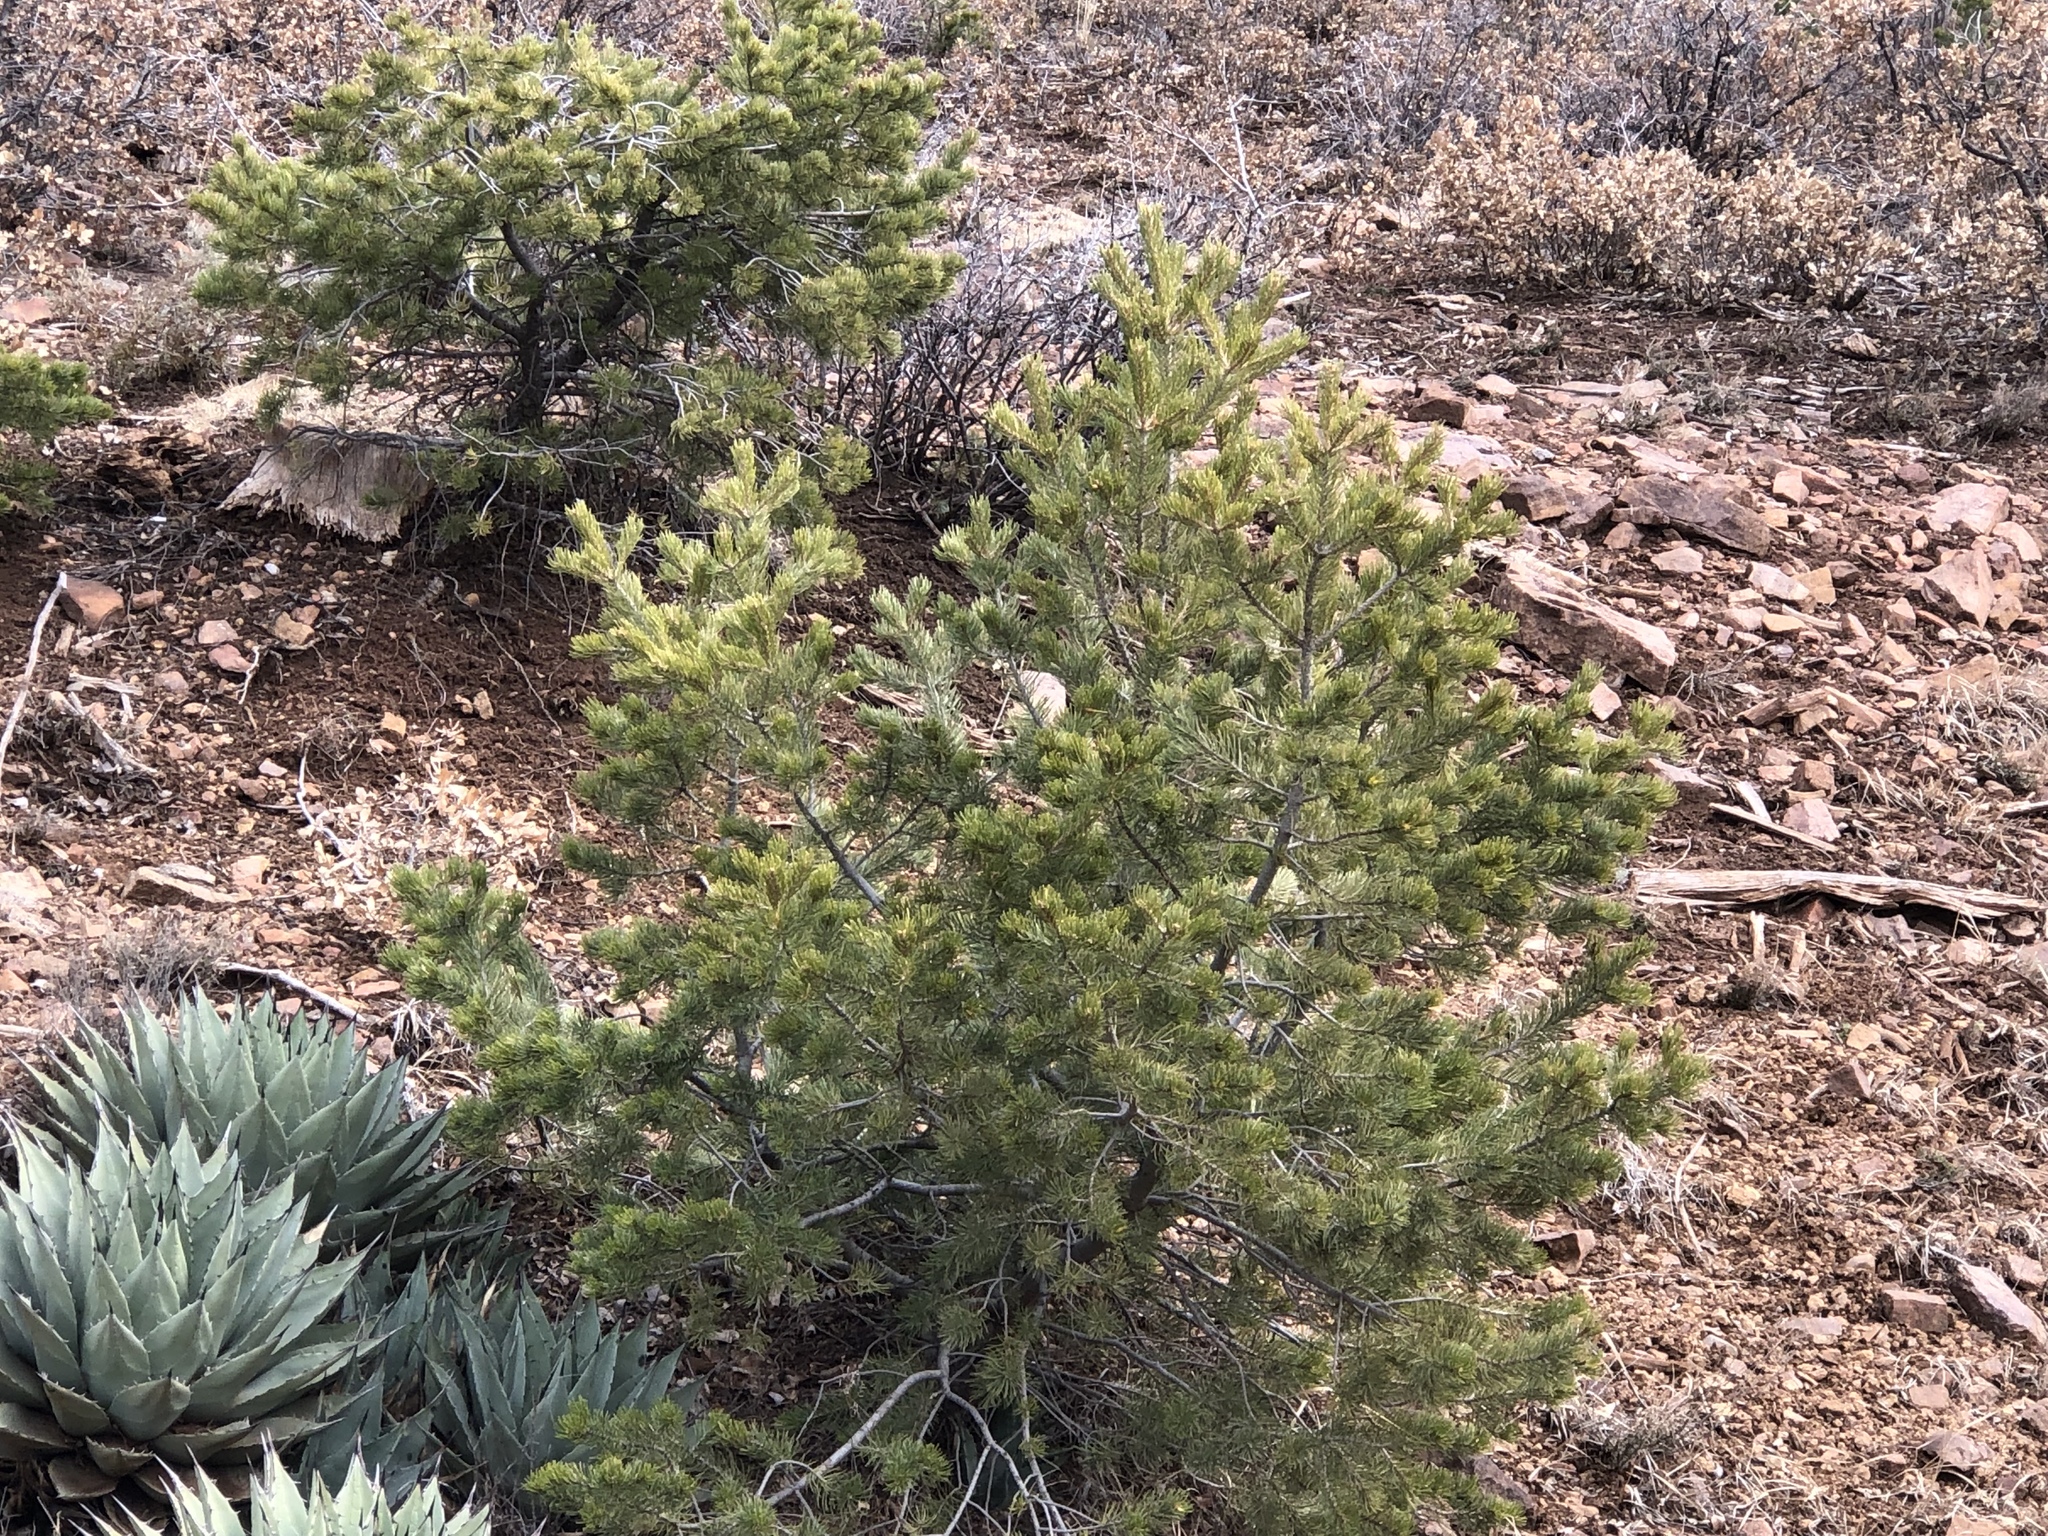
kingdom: Plantae
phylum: Tracheophyta
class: Pinopsida
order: Pinales
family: Pinaceae
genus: Pinus
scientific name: Pinus edulis
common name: Colorado pinyon
